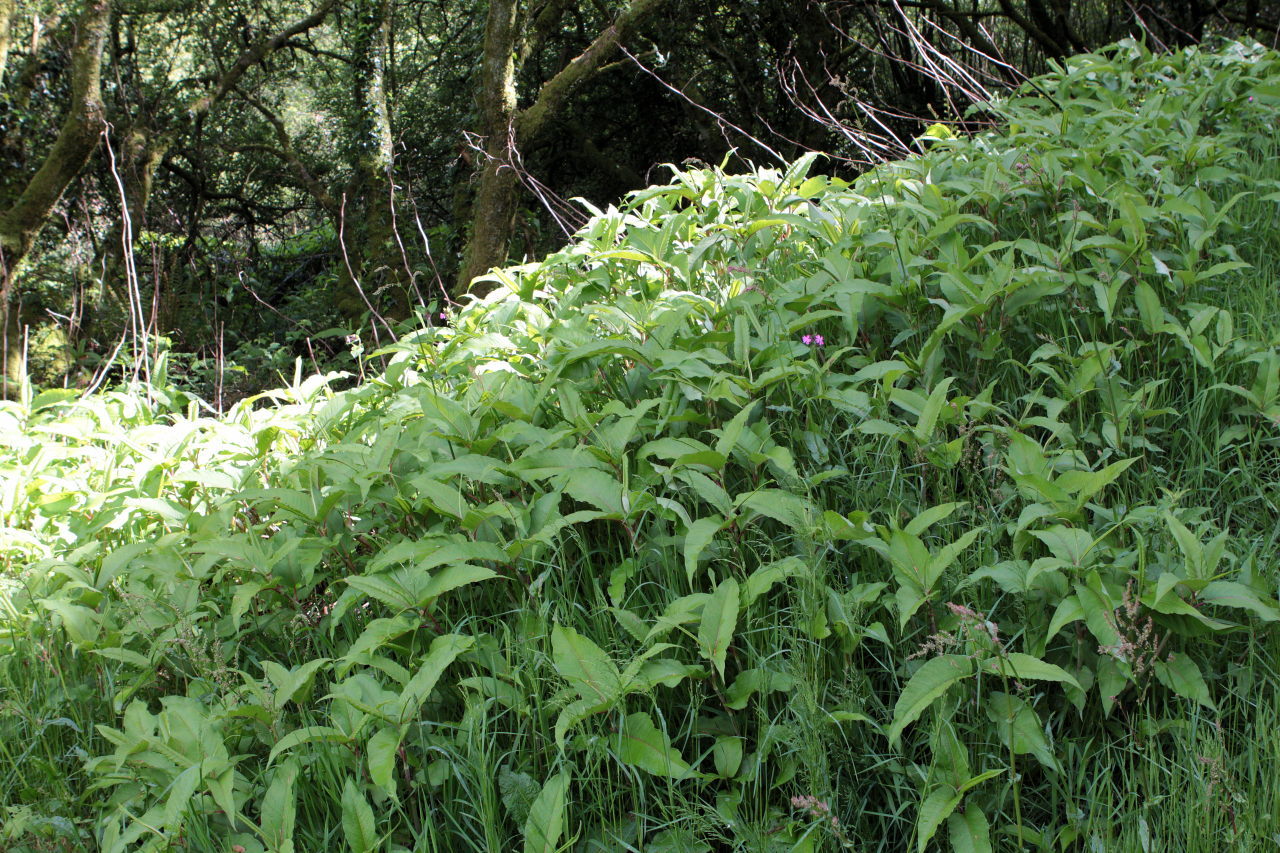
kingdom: Plantae
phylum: Tracheophyta
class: Magnoliopsida
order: Caryophyllales
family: Polygonaceae
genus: Koenigia
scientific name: Koenigia polystachya
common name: Himalayan knotweed
